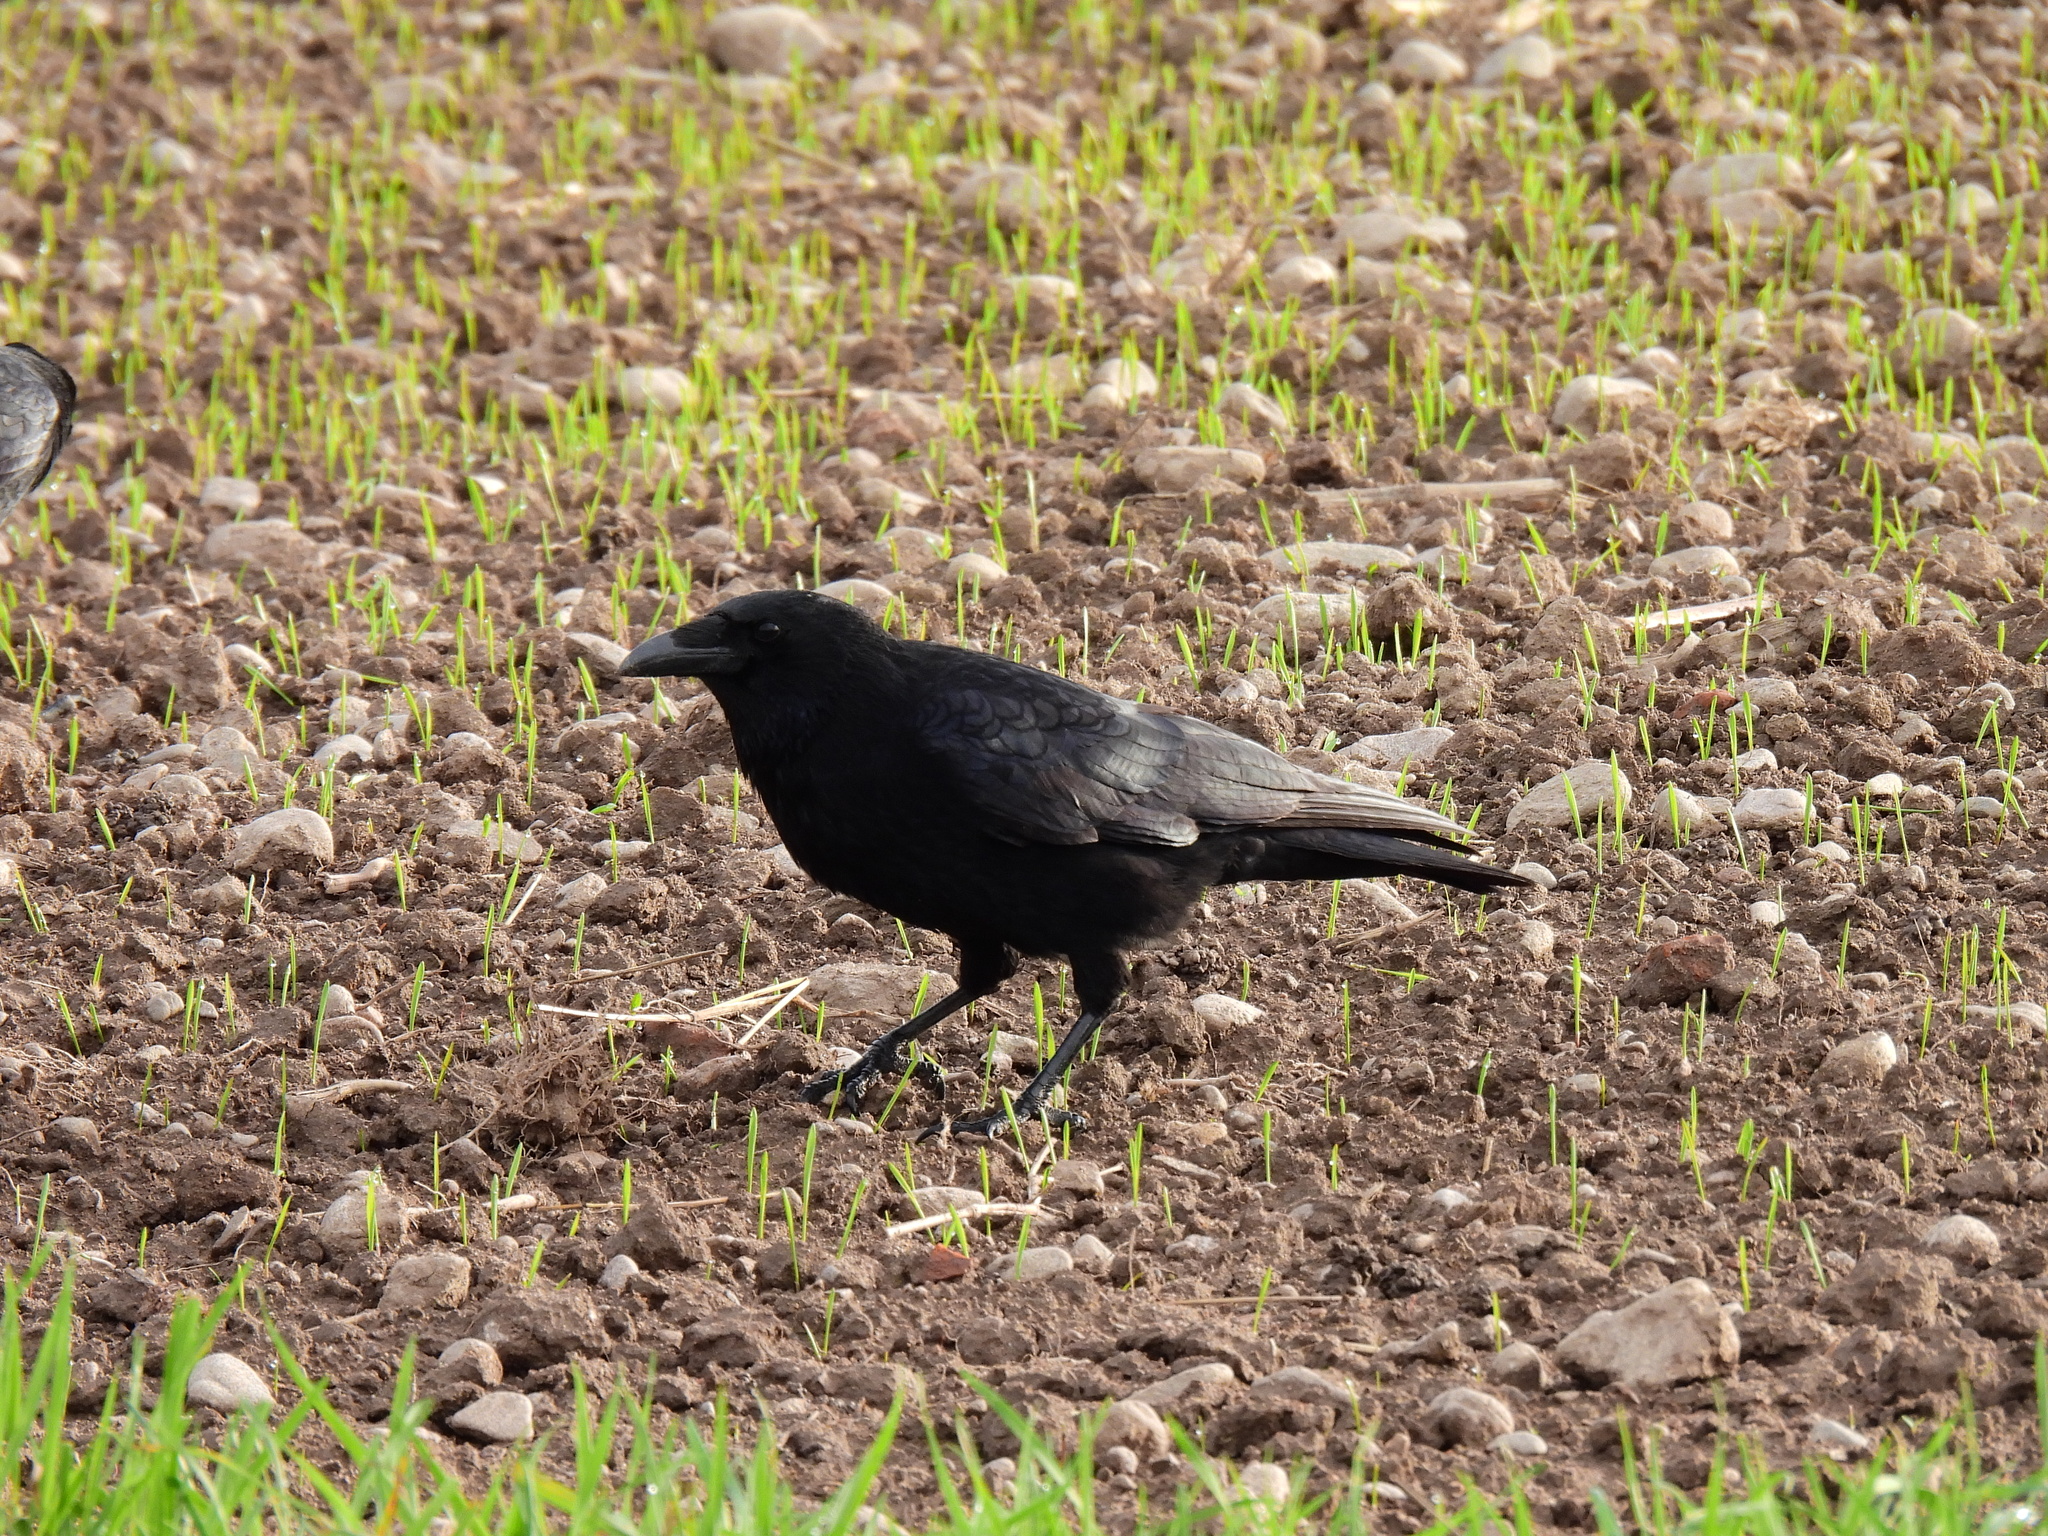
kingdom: Animalia
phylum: Chordata
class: Aves
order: Passeriformes
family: Corvidae
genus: Corvus
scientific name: Corvus corone
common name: Carrion crow
